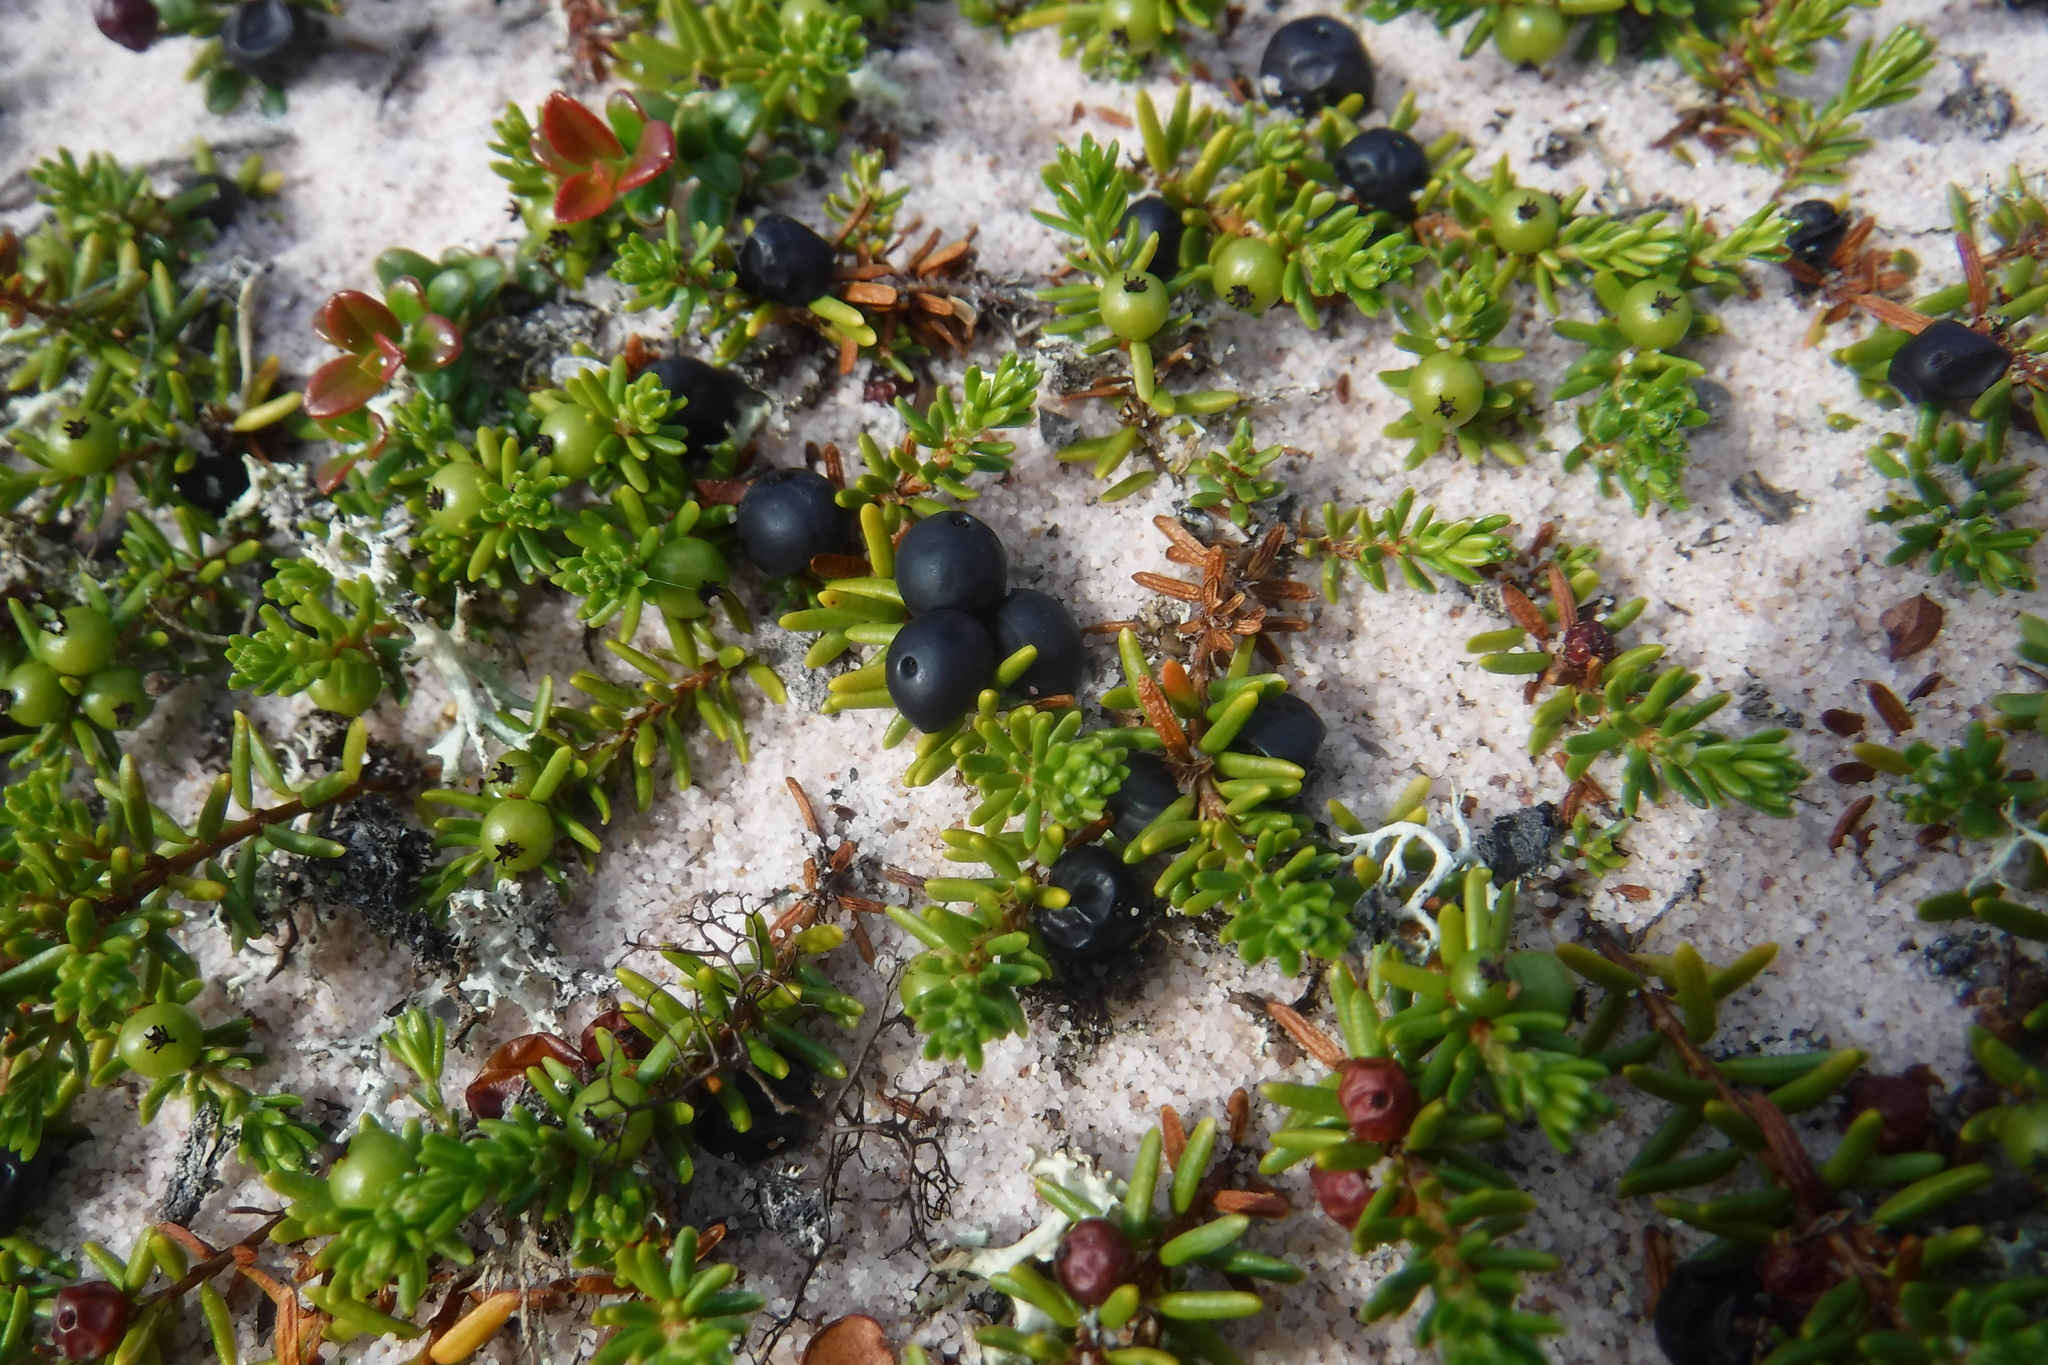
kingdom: Plantae
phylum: Tracheophyta
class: Magnoliopsida
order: Ericales
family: Ericaceae
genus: Empetrum
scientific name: Empetrum nigrum
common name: Black crowberry
